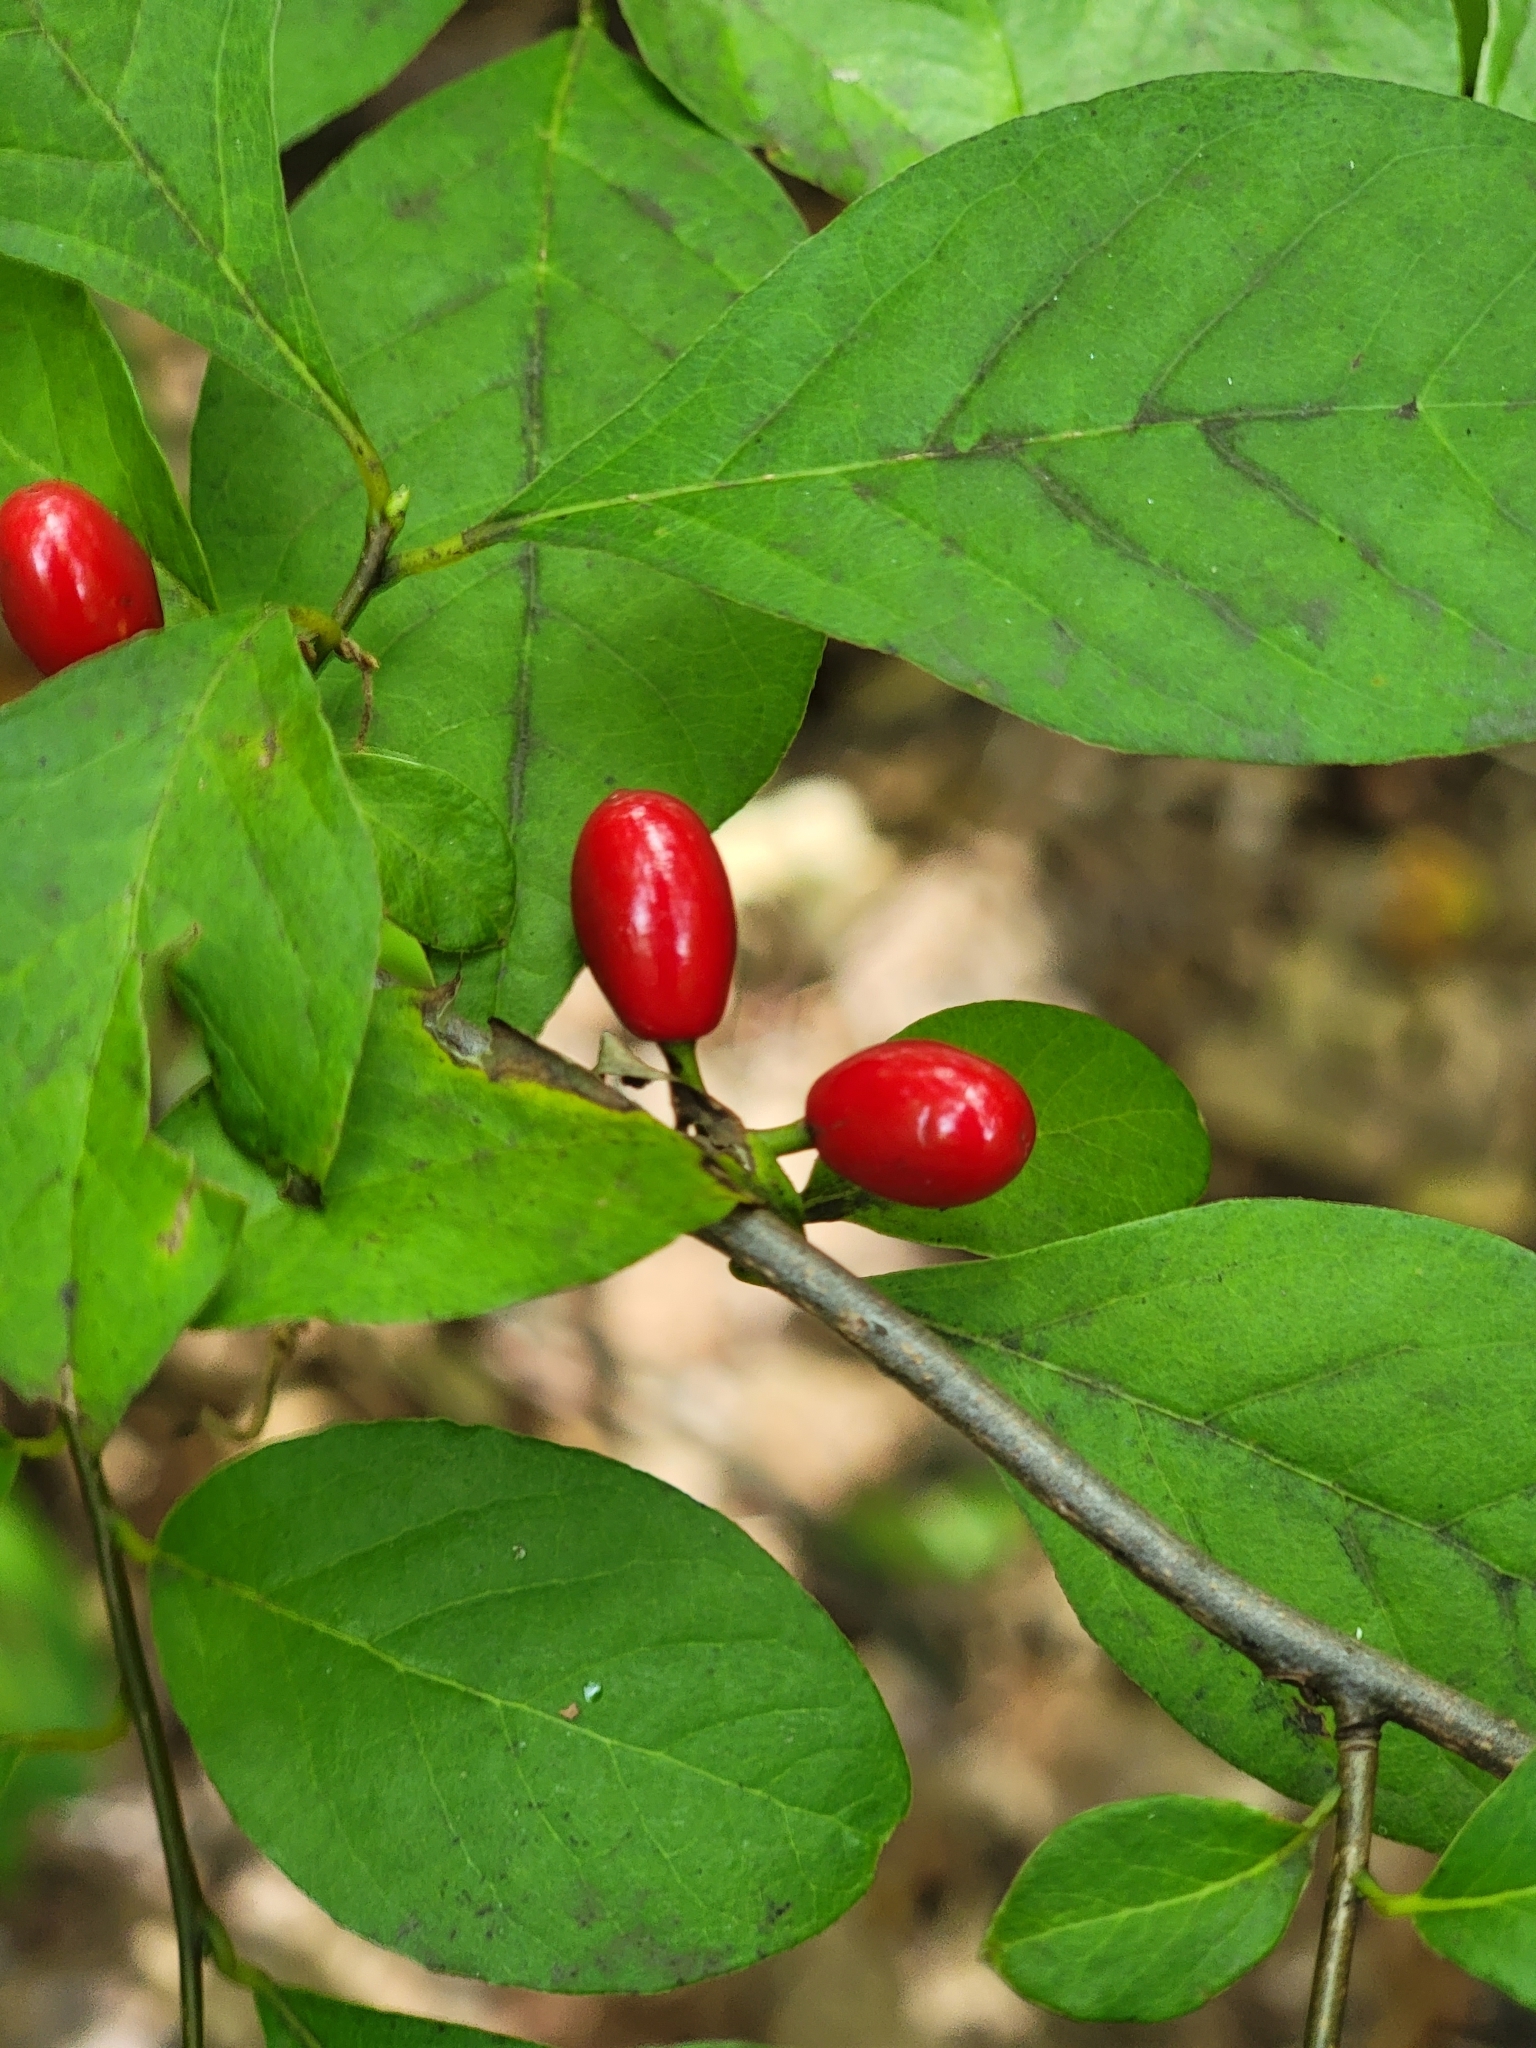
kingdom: Plantae
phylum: Tracheophyta
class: Magnoliopsida
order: Laurales
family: Lauraceae
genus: Lindera
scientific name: Lindera benzoin
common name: Spicebush
